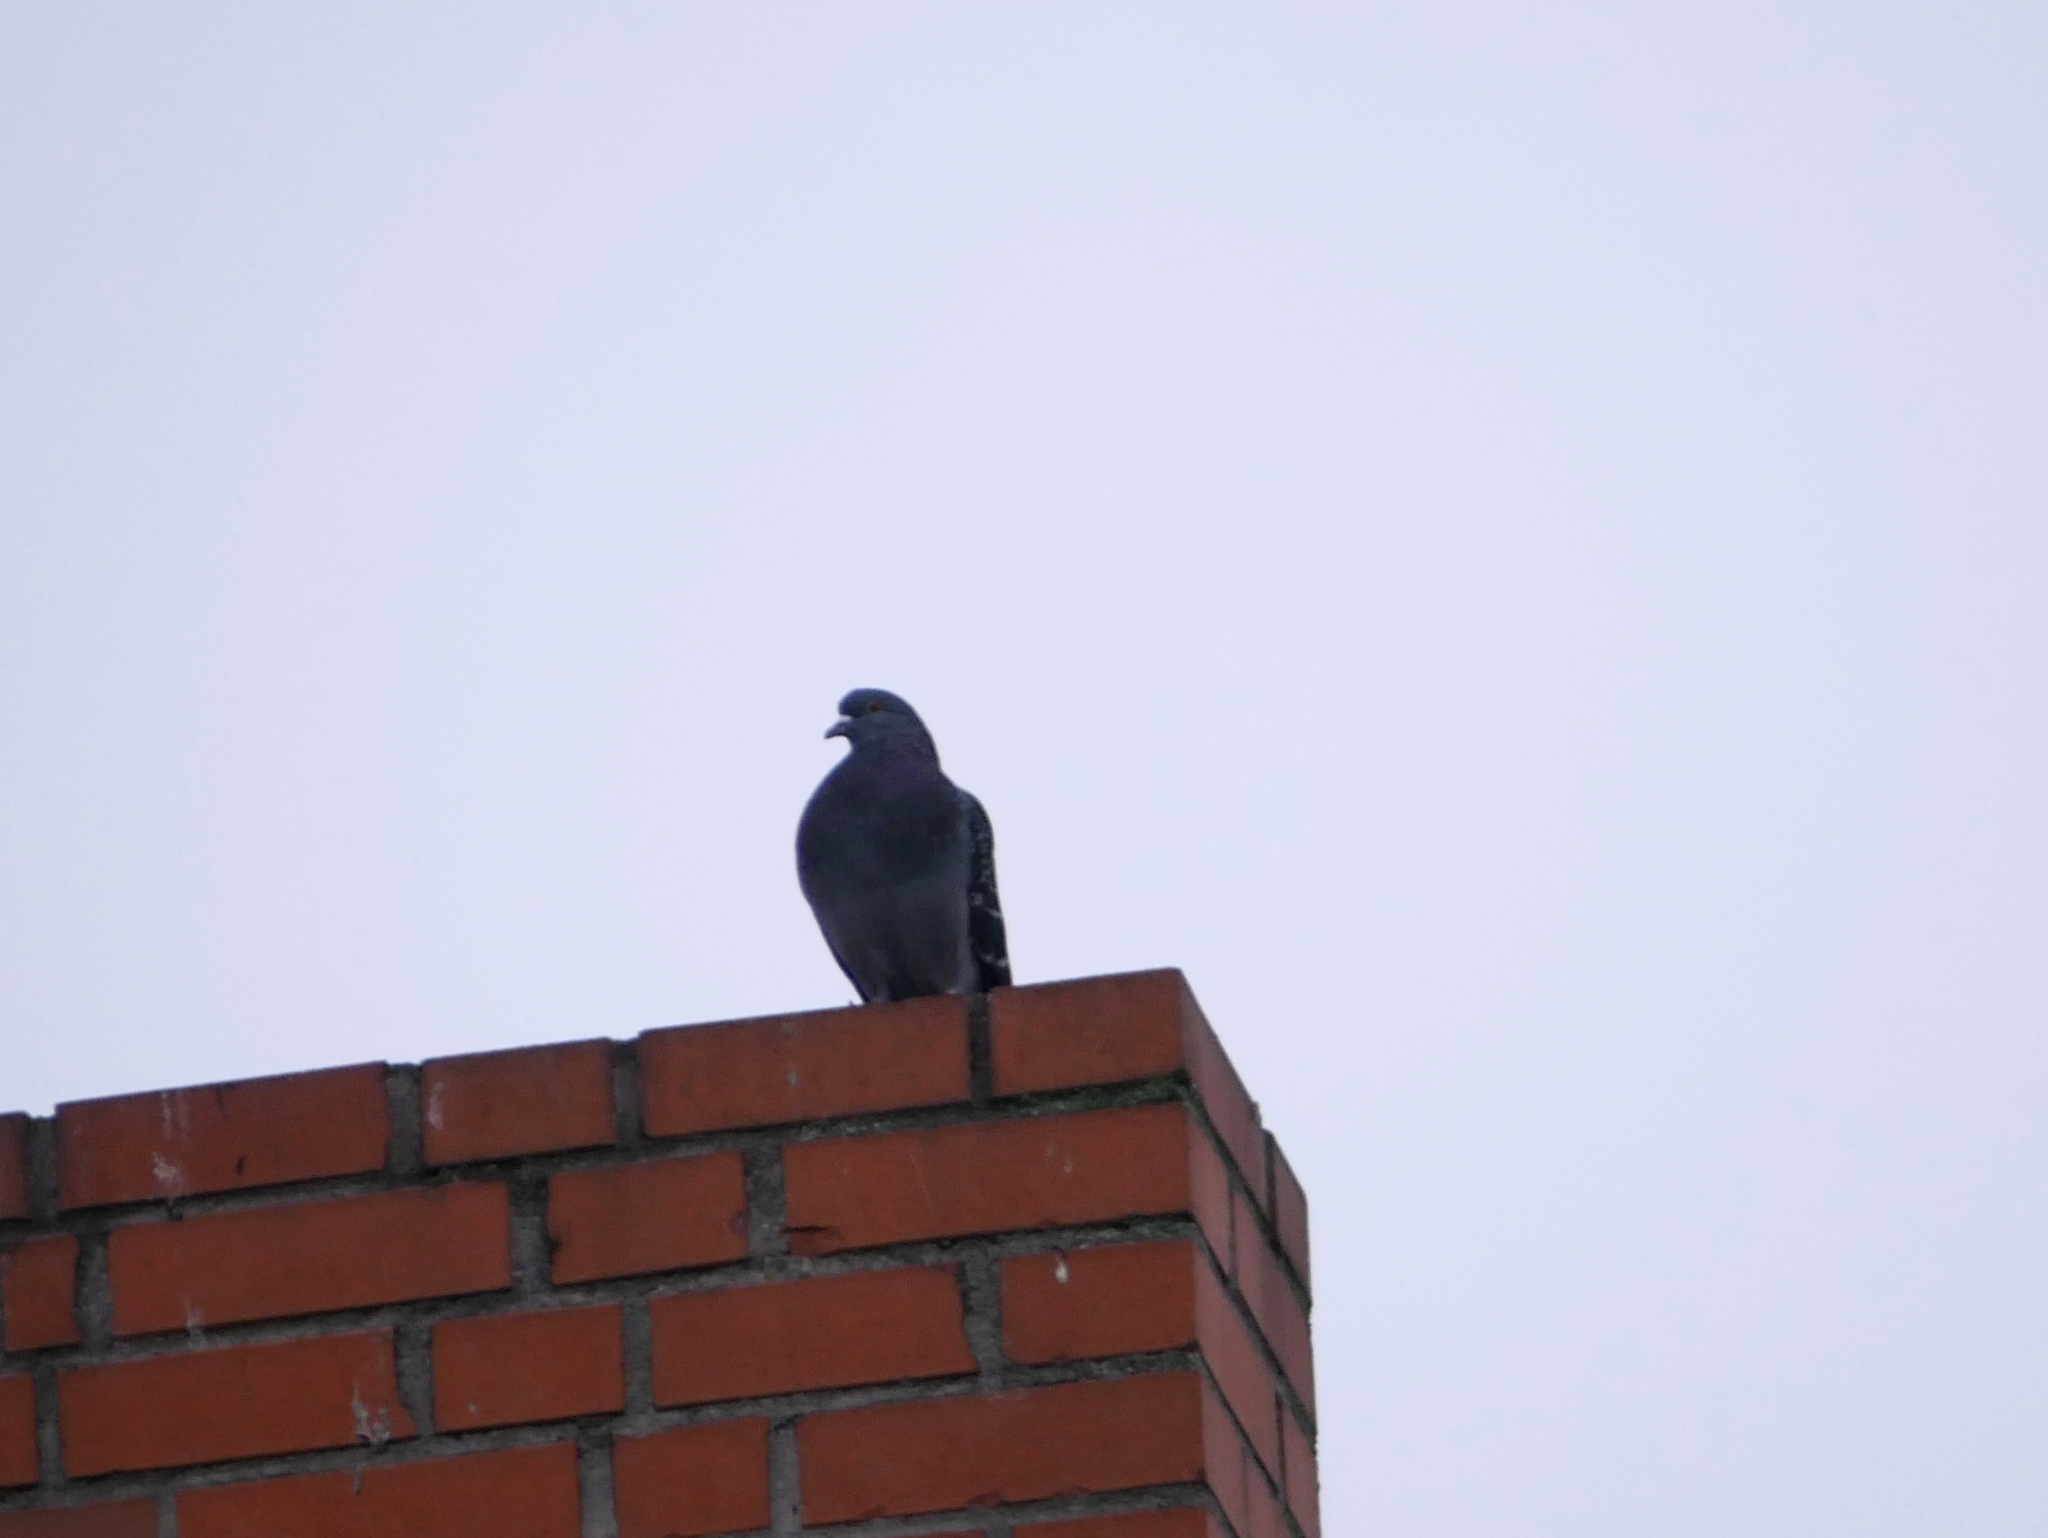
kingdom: Animalia
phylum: Chordata
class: Aves
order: Columbiformes
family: Columbidae
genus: Columba
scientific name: Columba livia
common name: Rock pigeon
